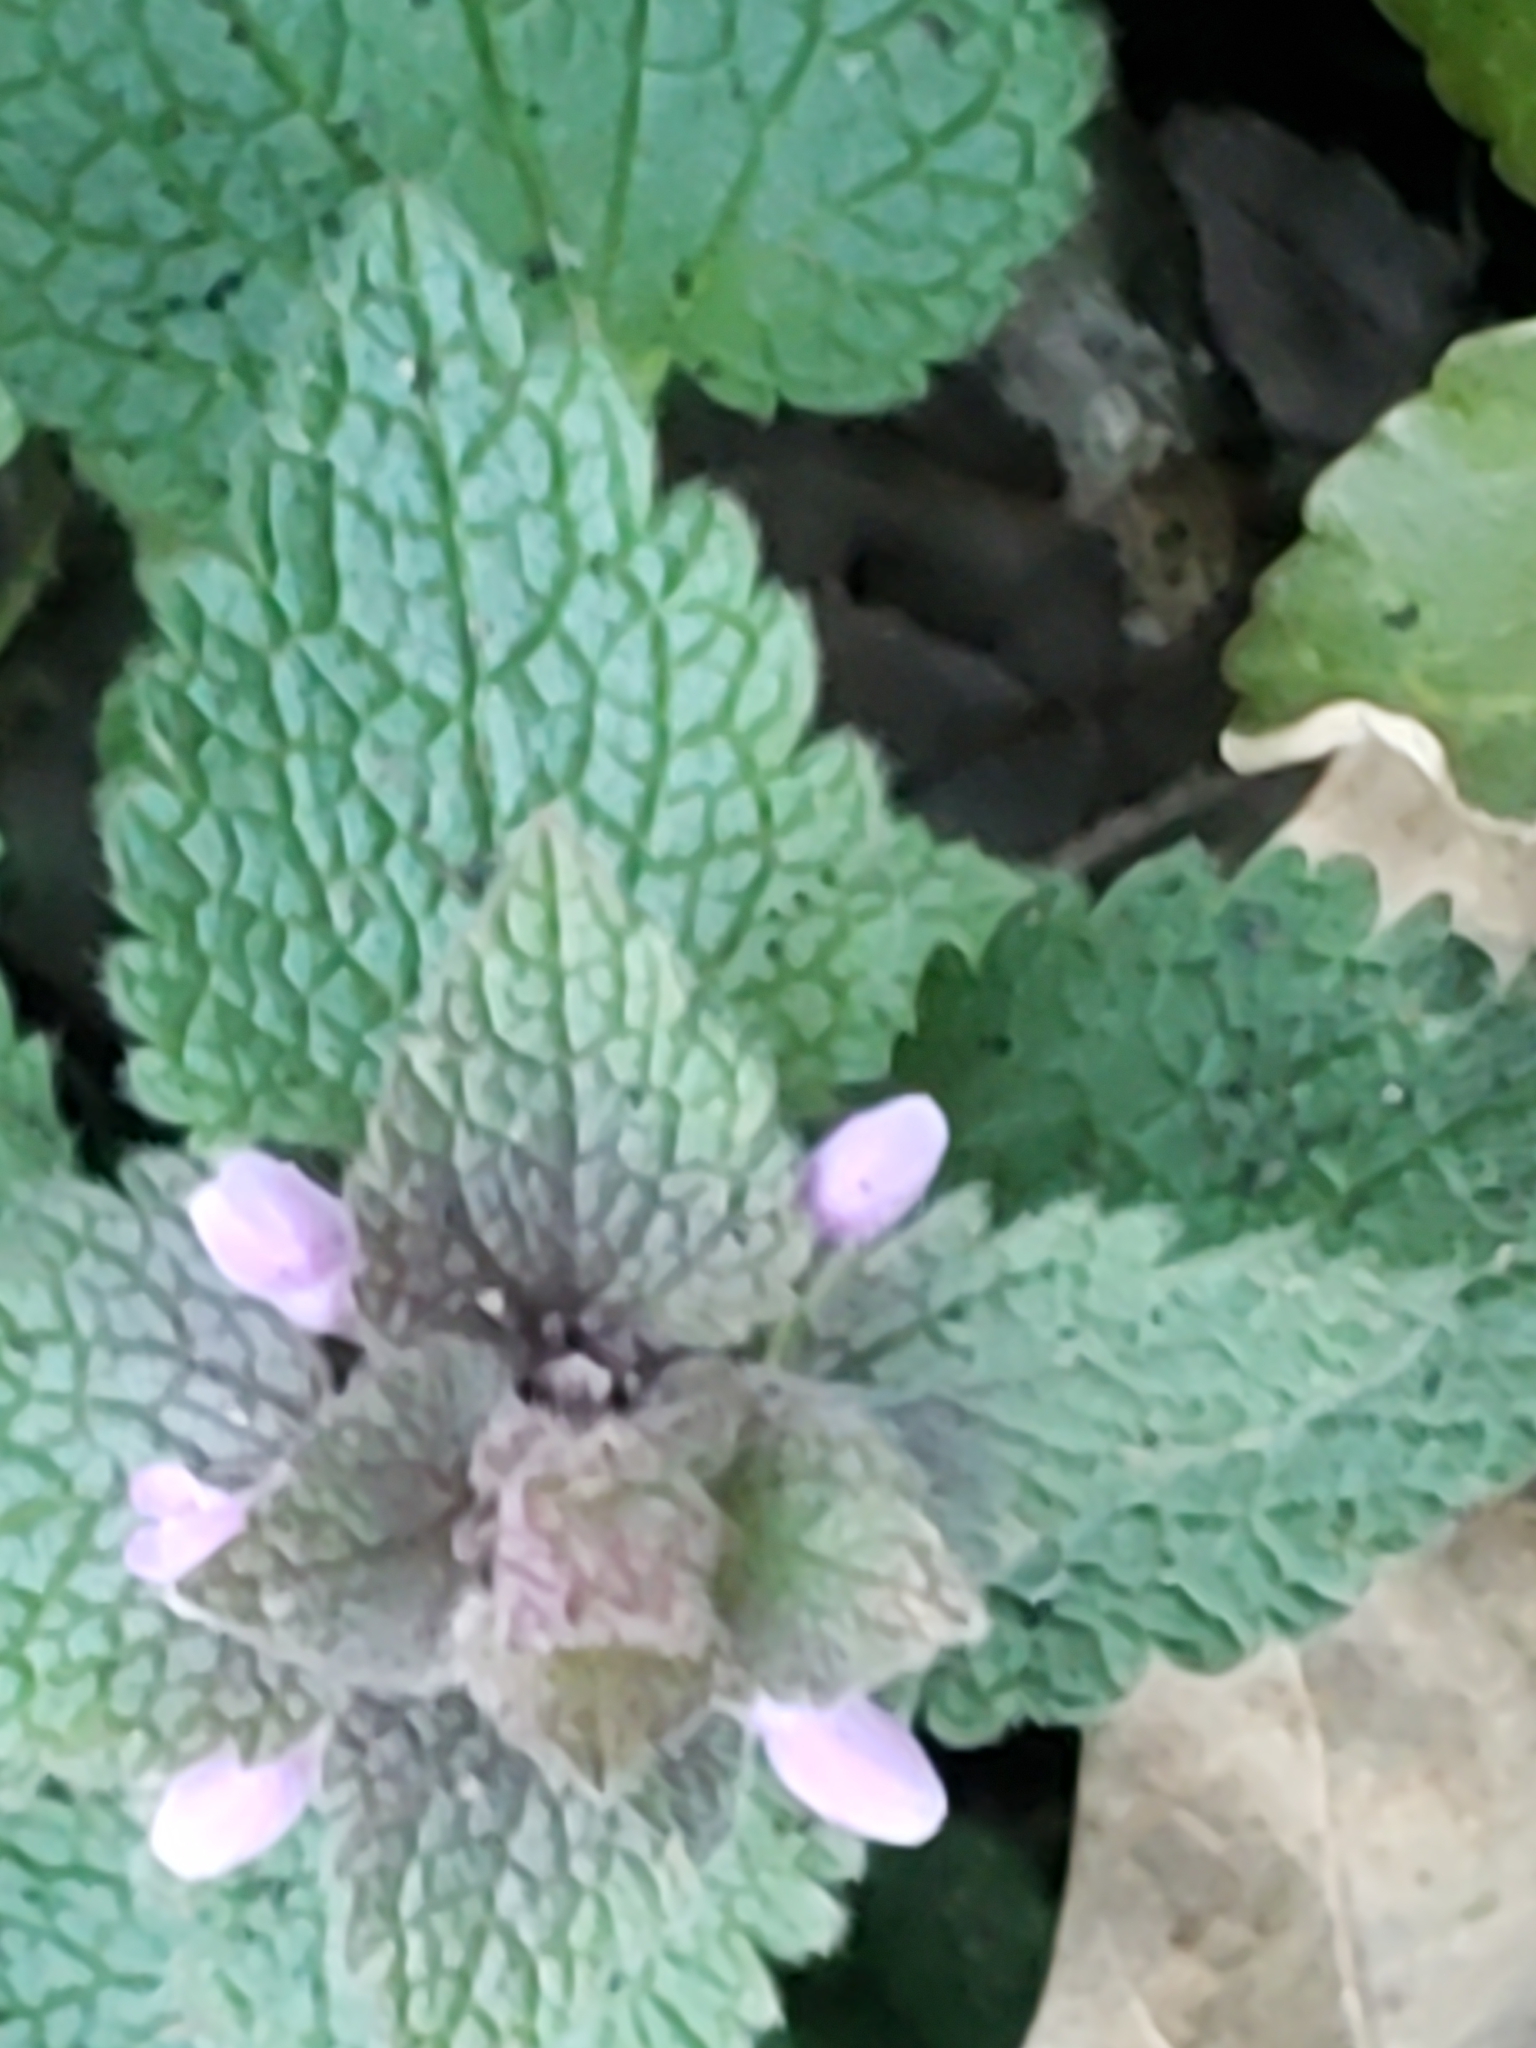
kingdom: Plantae
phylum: Tracheophyta
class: Magnoliopsida
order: Lamiales
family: Lamiaceae
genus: Lamium
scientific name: Lamium purpureum
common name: Red dead-nettle
